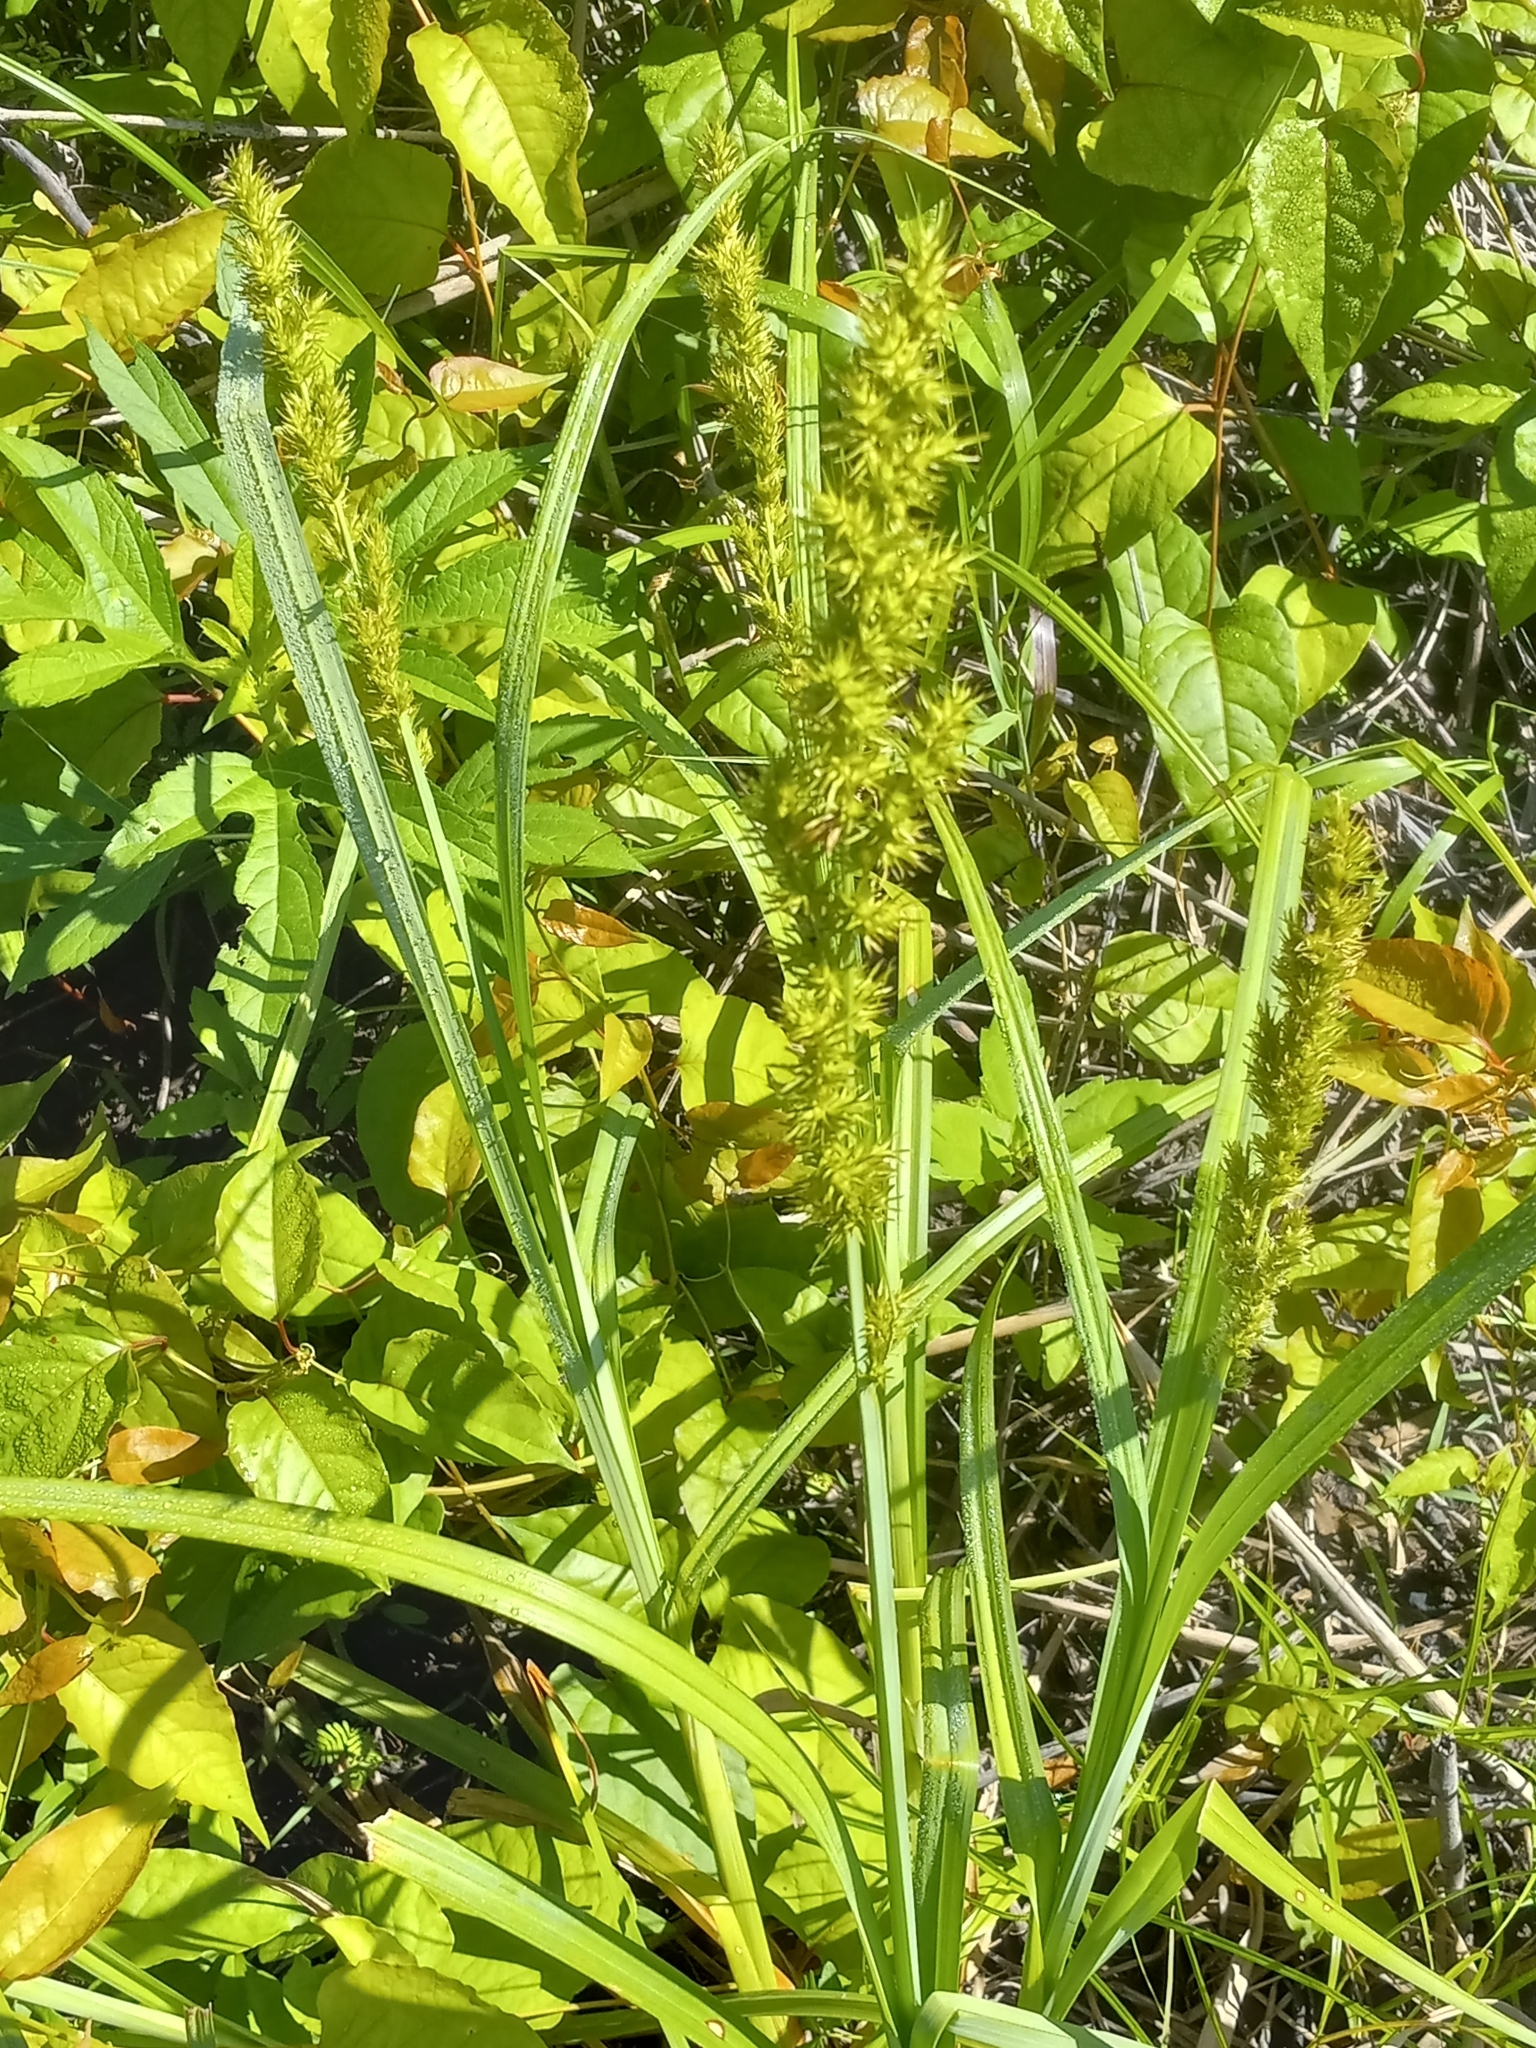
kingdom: Plantae
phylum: Tracheophyta
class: Liliopsida
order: Poales
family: Cyperaceae
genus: Carex
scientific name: Carex crus-corvi
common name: Crow-spur sedge
